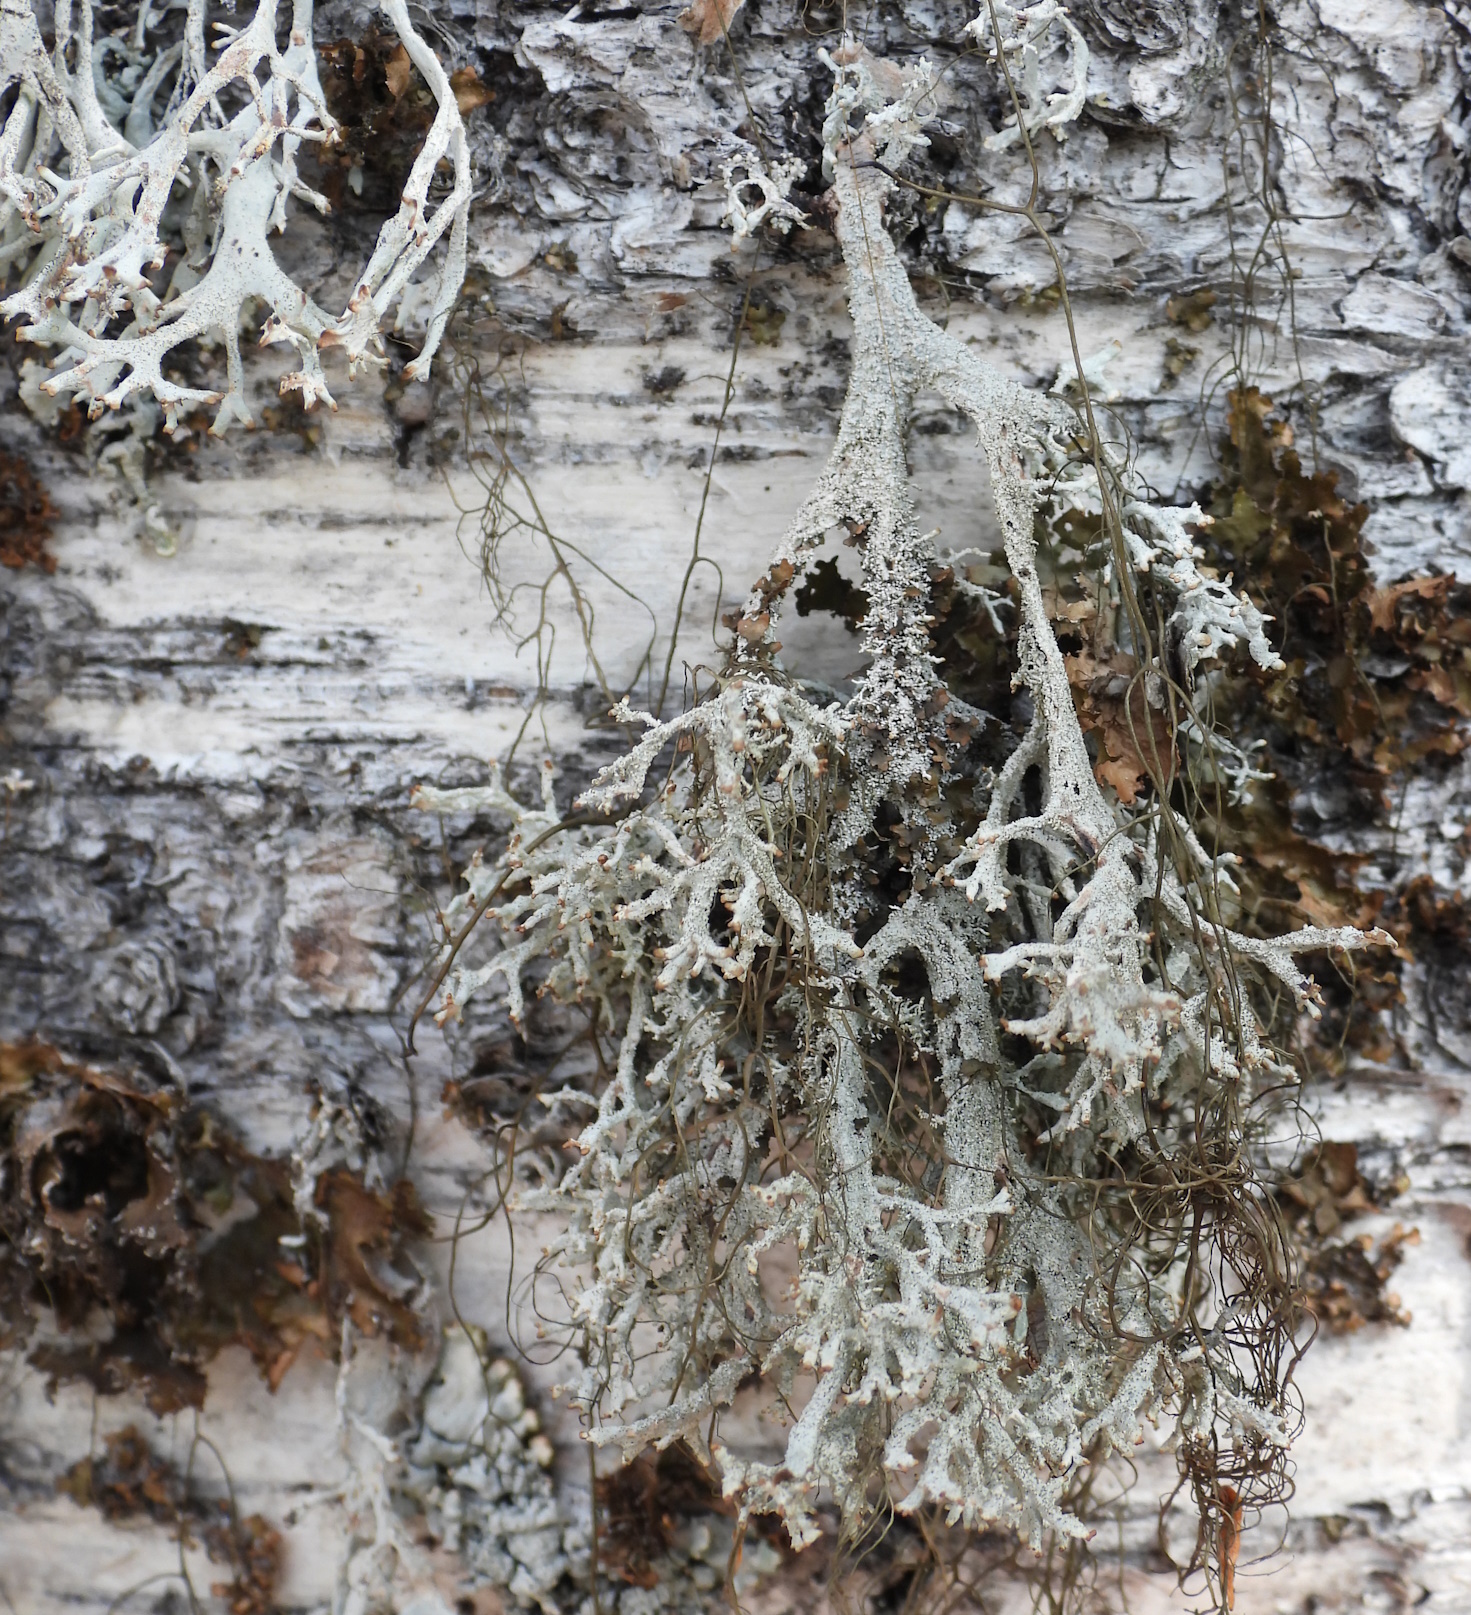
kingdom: Fungi
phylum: Ascomycota
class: Lecanoromycetes
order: Lecanorales
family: Parmeliaceae
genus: Pseudevernia
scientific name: Pseudevernia furfuracea
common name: Tree moss
